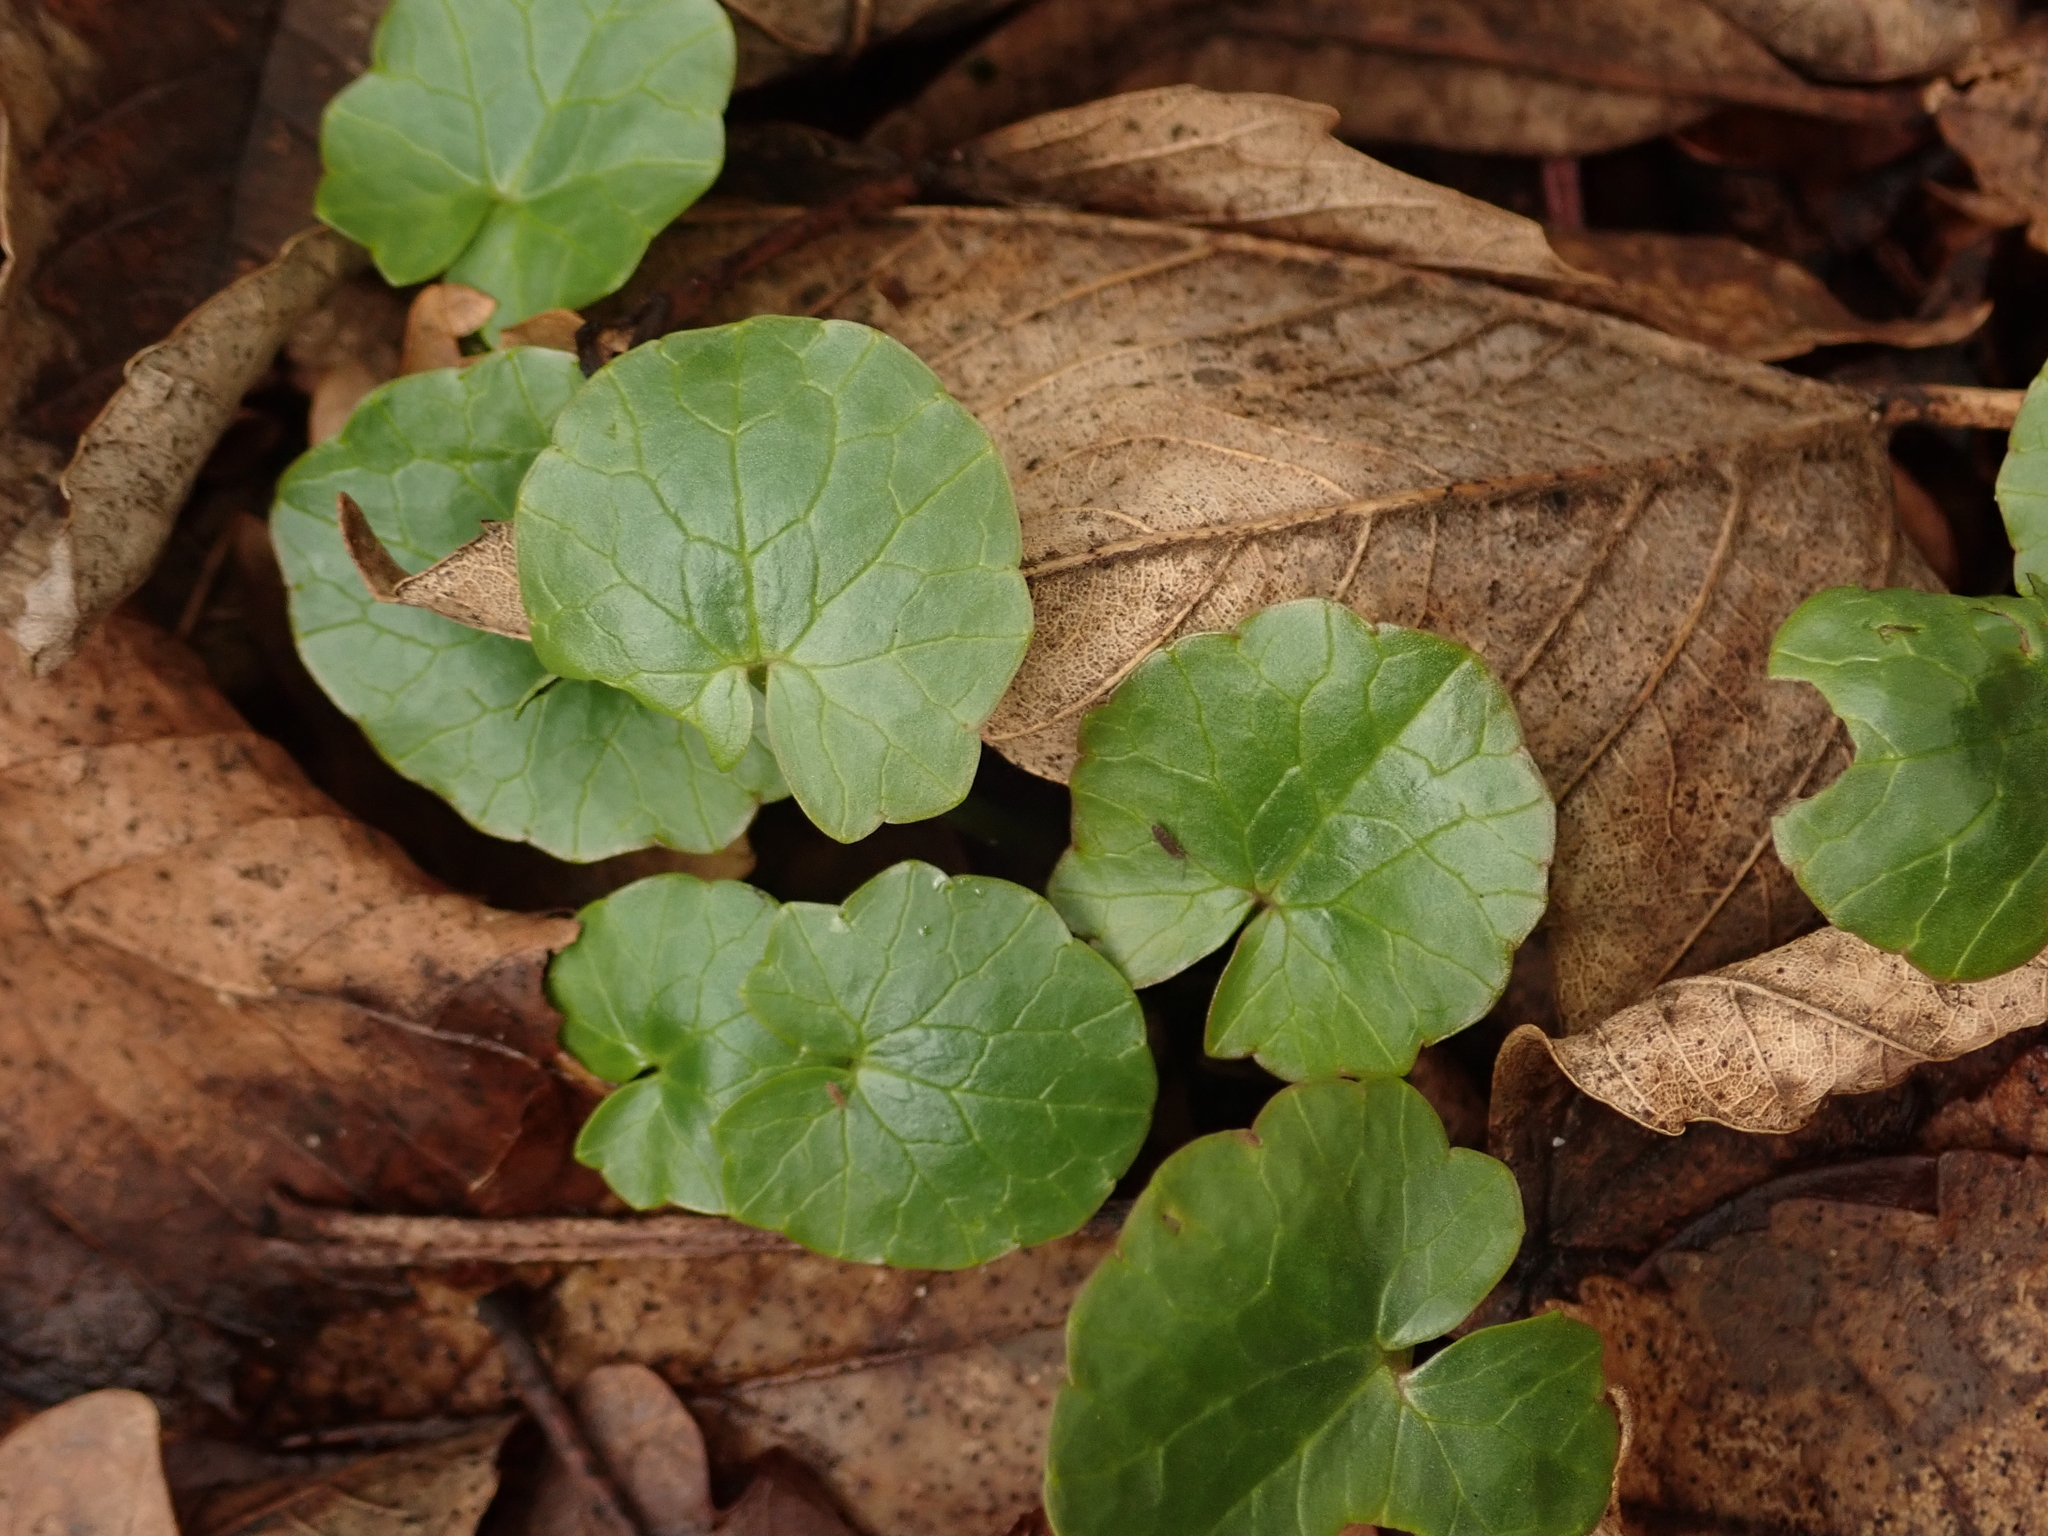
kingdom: Plantae
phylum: Tracheophyta
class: Magnoliopsida
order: Ranunculales
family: Ranunculaceae
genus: Ficaria
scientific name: Ficaria verna
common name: Lesser celandine
